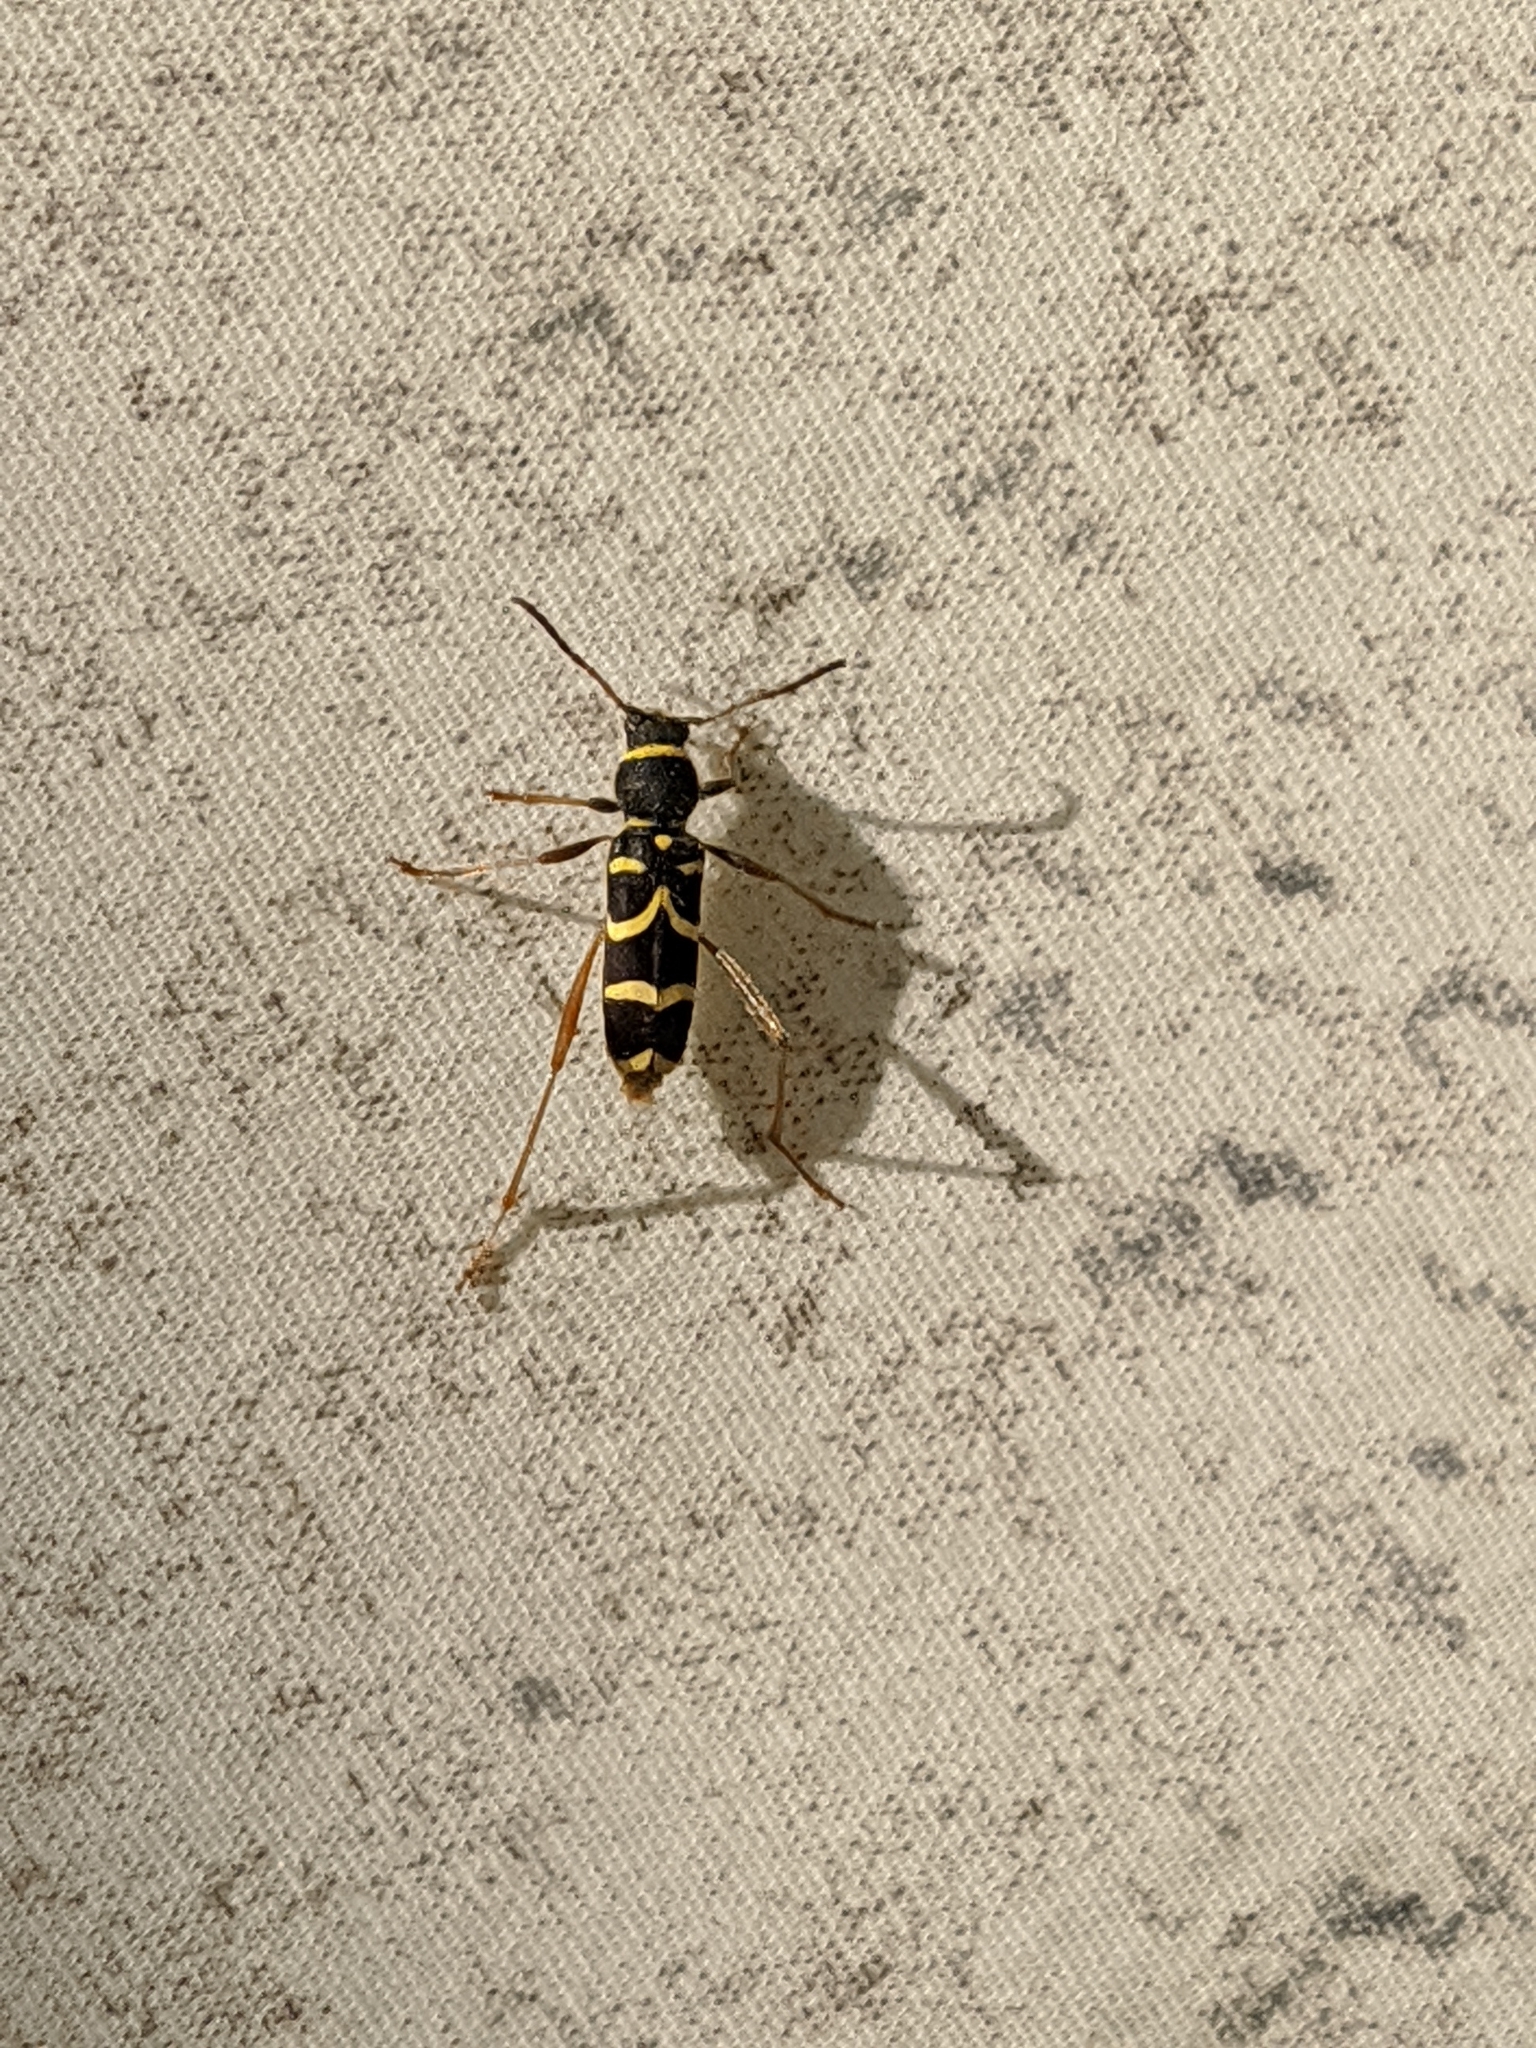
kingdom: Animalia
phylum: Arthropoda
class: Insecta
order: Coleoptera
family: Cerambycidae
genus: Clytus
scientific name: Clytus arietis
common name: Wasp beetle
